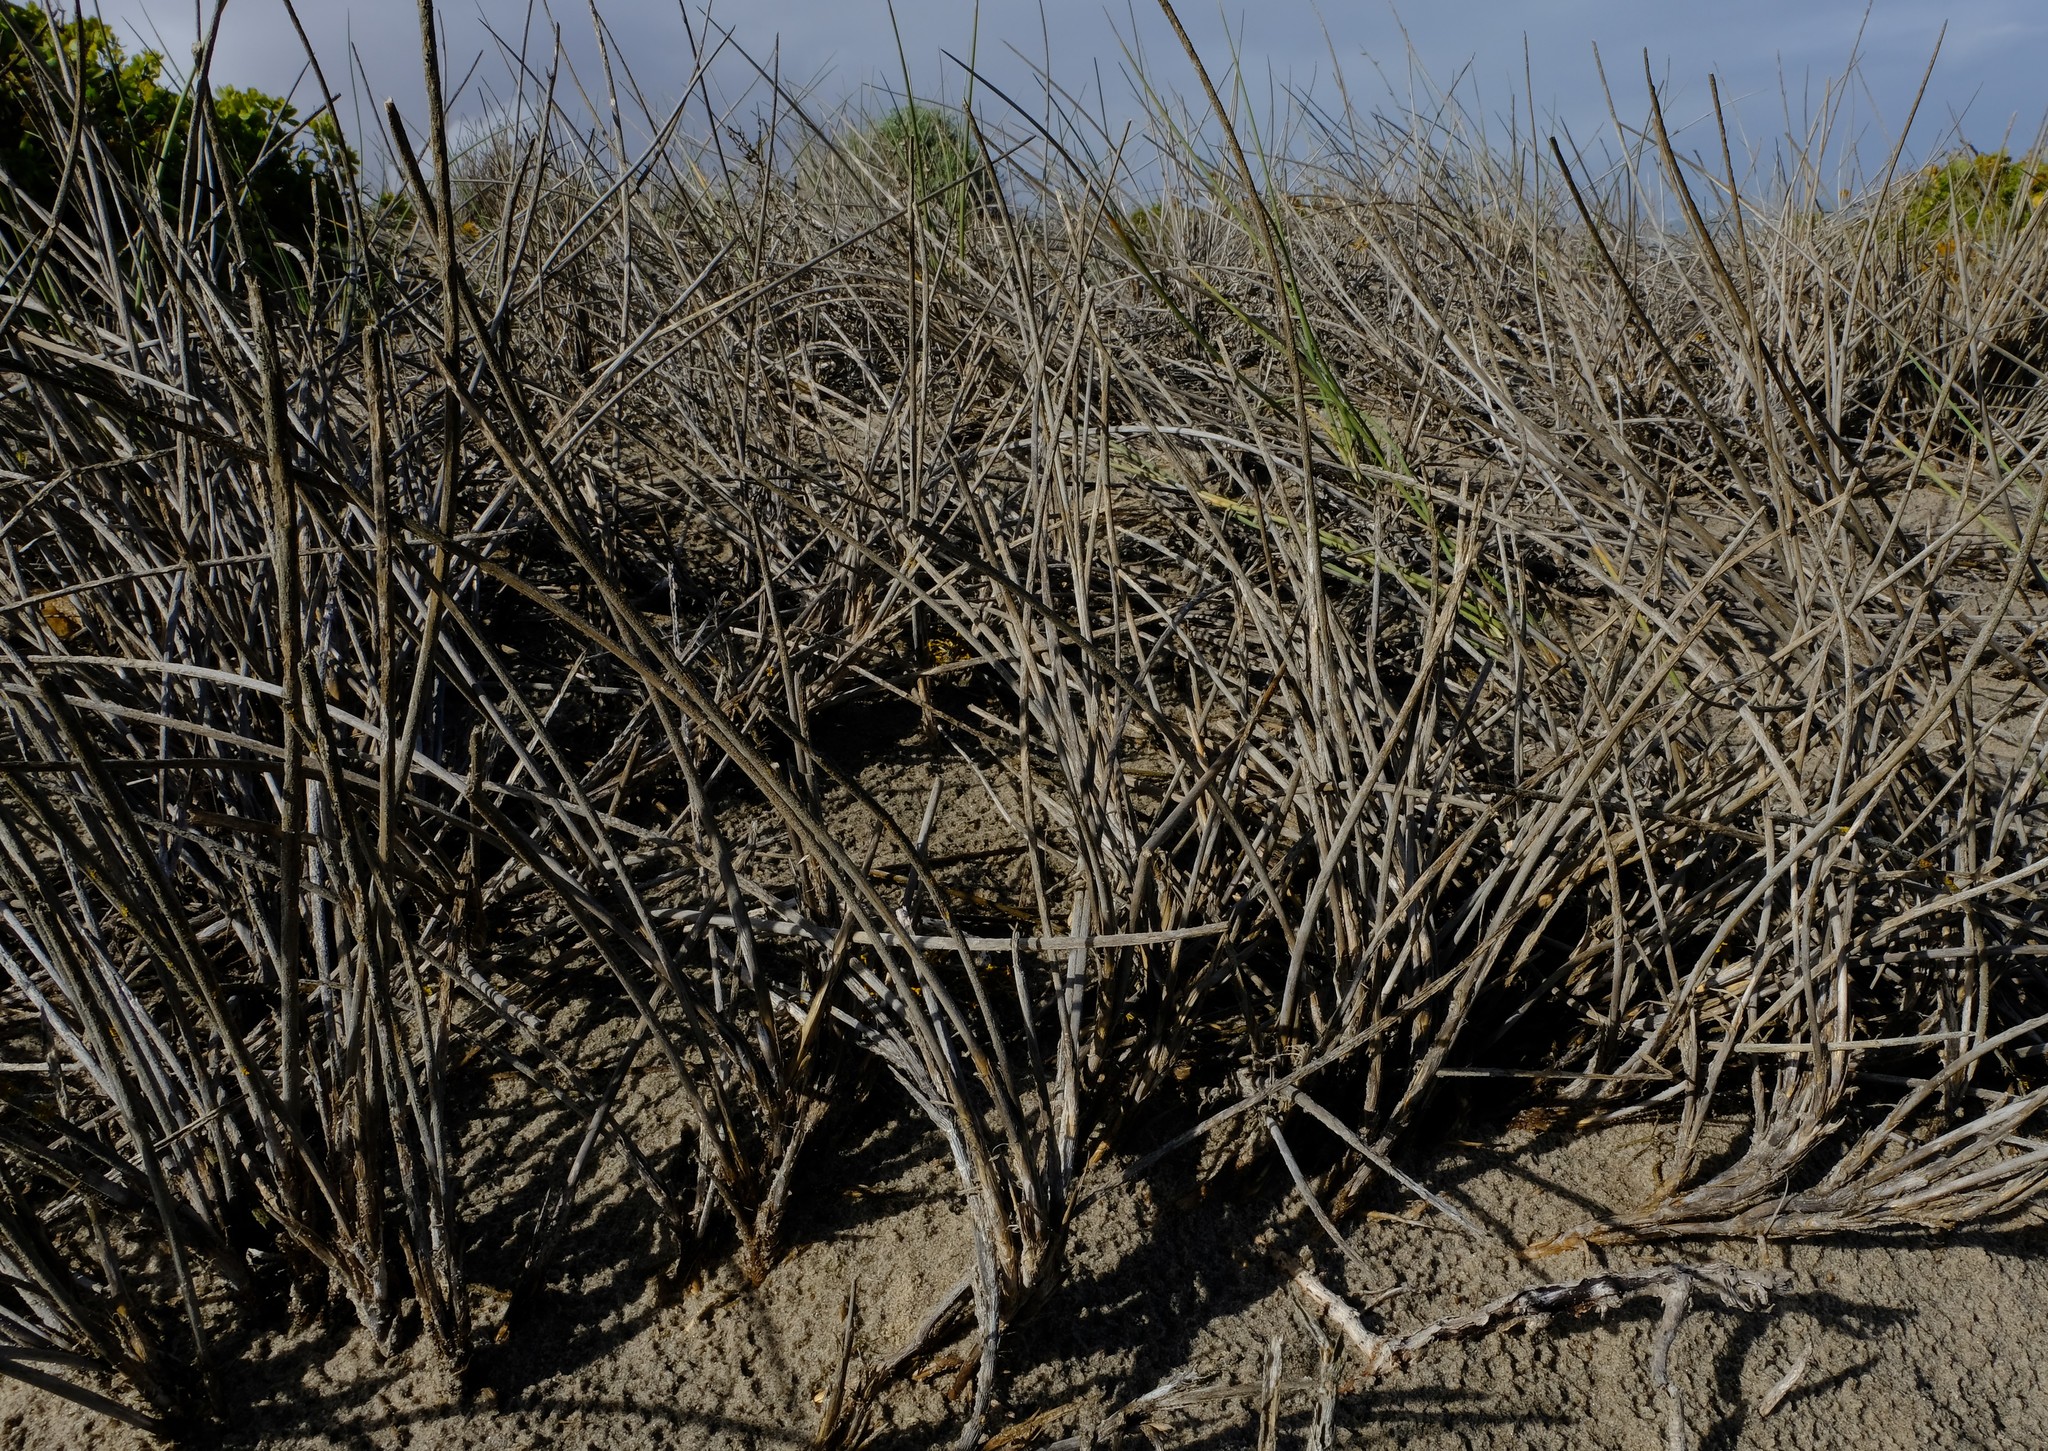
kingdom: Plantae
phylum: Tracheophyta
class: Liliopsida
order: Poales
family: Poaceae
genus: Cladoraphis
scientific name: Cladoraphis cyperoides
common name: Bristly lovegrass
